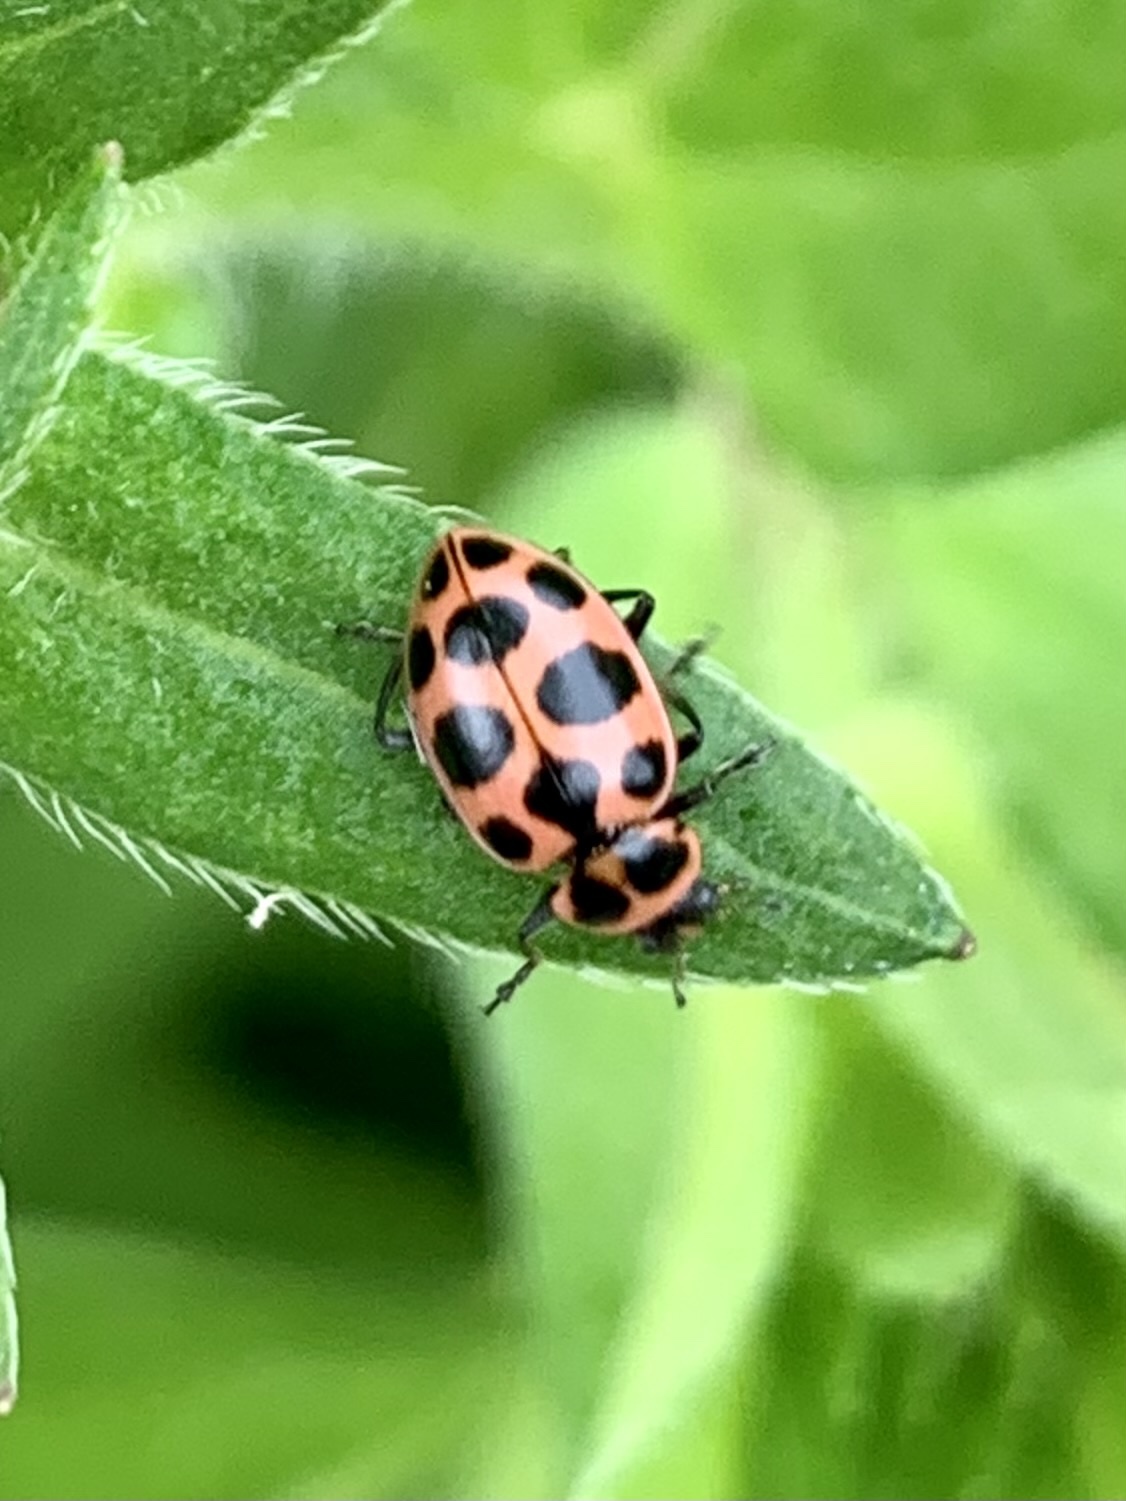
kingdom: Animalia
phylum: Arthropoda
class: Insecta
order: Coleoptera
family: Coccinellidae
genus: Coleomegilla
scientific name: Coleomegilla maculata
